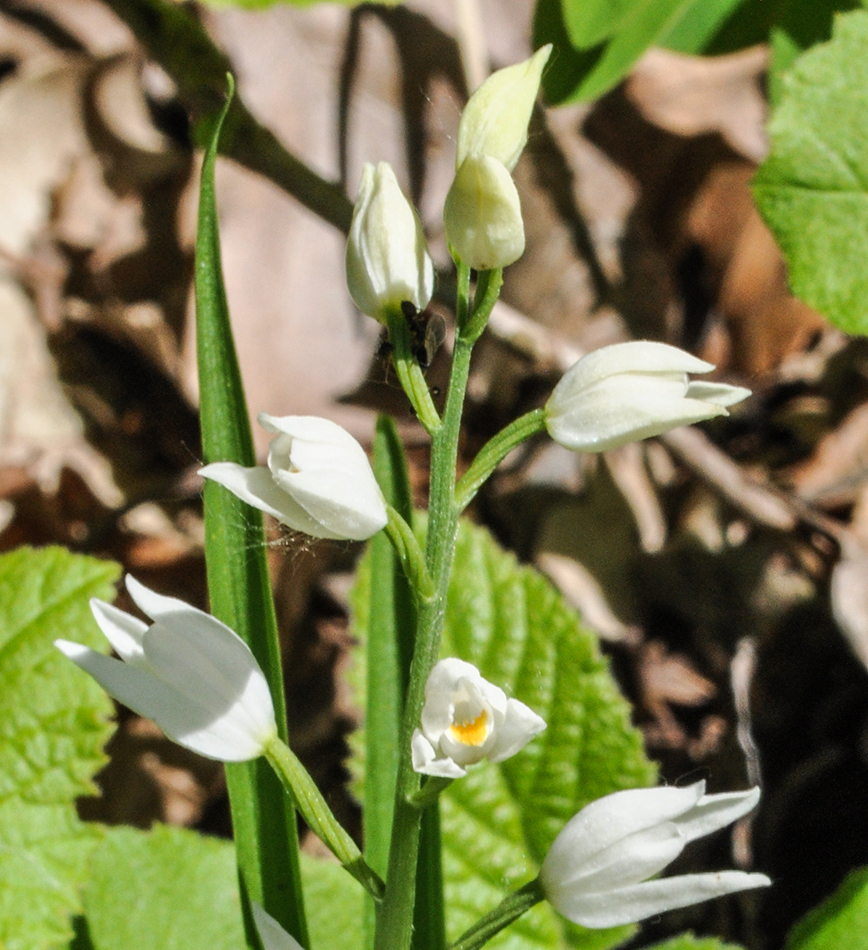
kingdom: Plantae
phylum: Tracheophyta
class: Liliopsida
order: Asparagales
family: Orchidaceae
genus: Cephalanthera
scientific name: Cephalanthera longifolia
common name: Narrow-leaved helleborine
